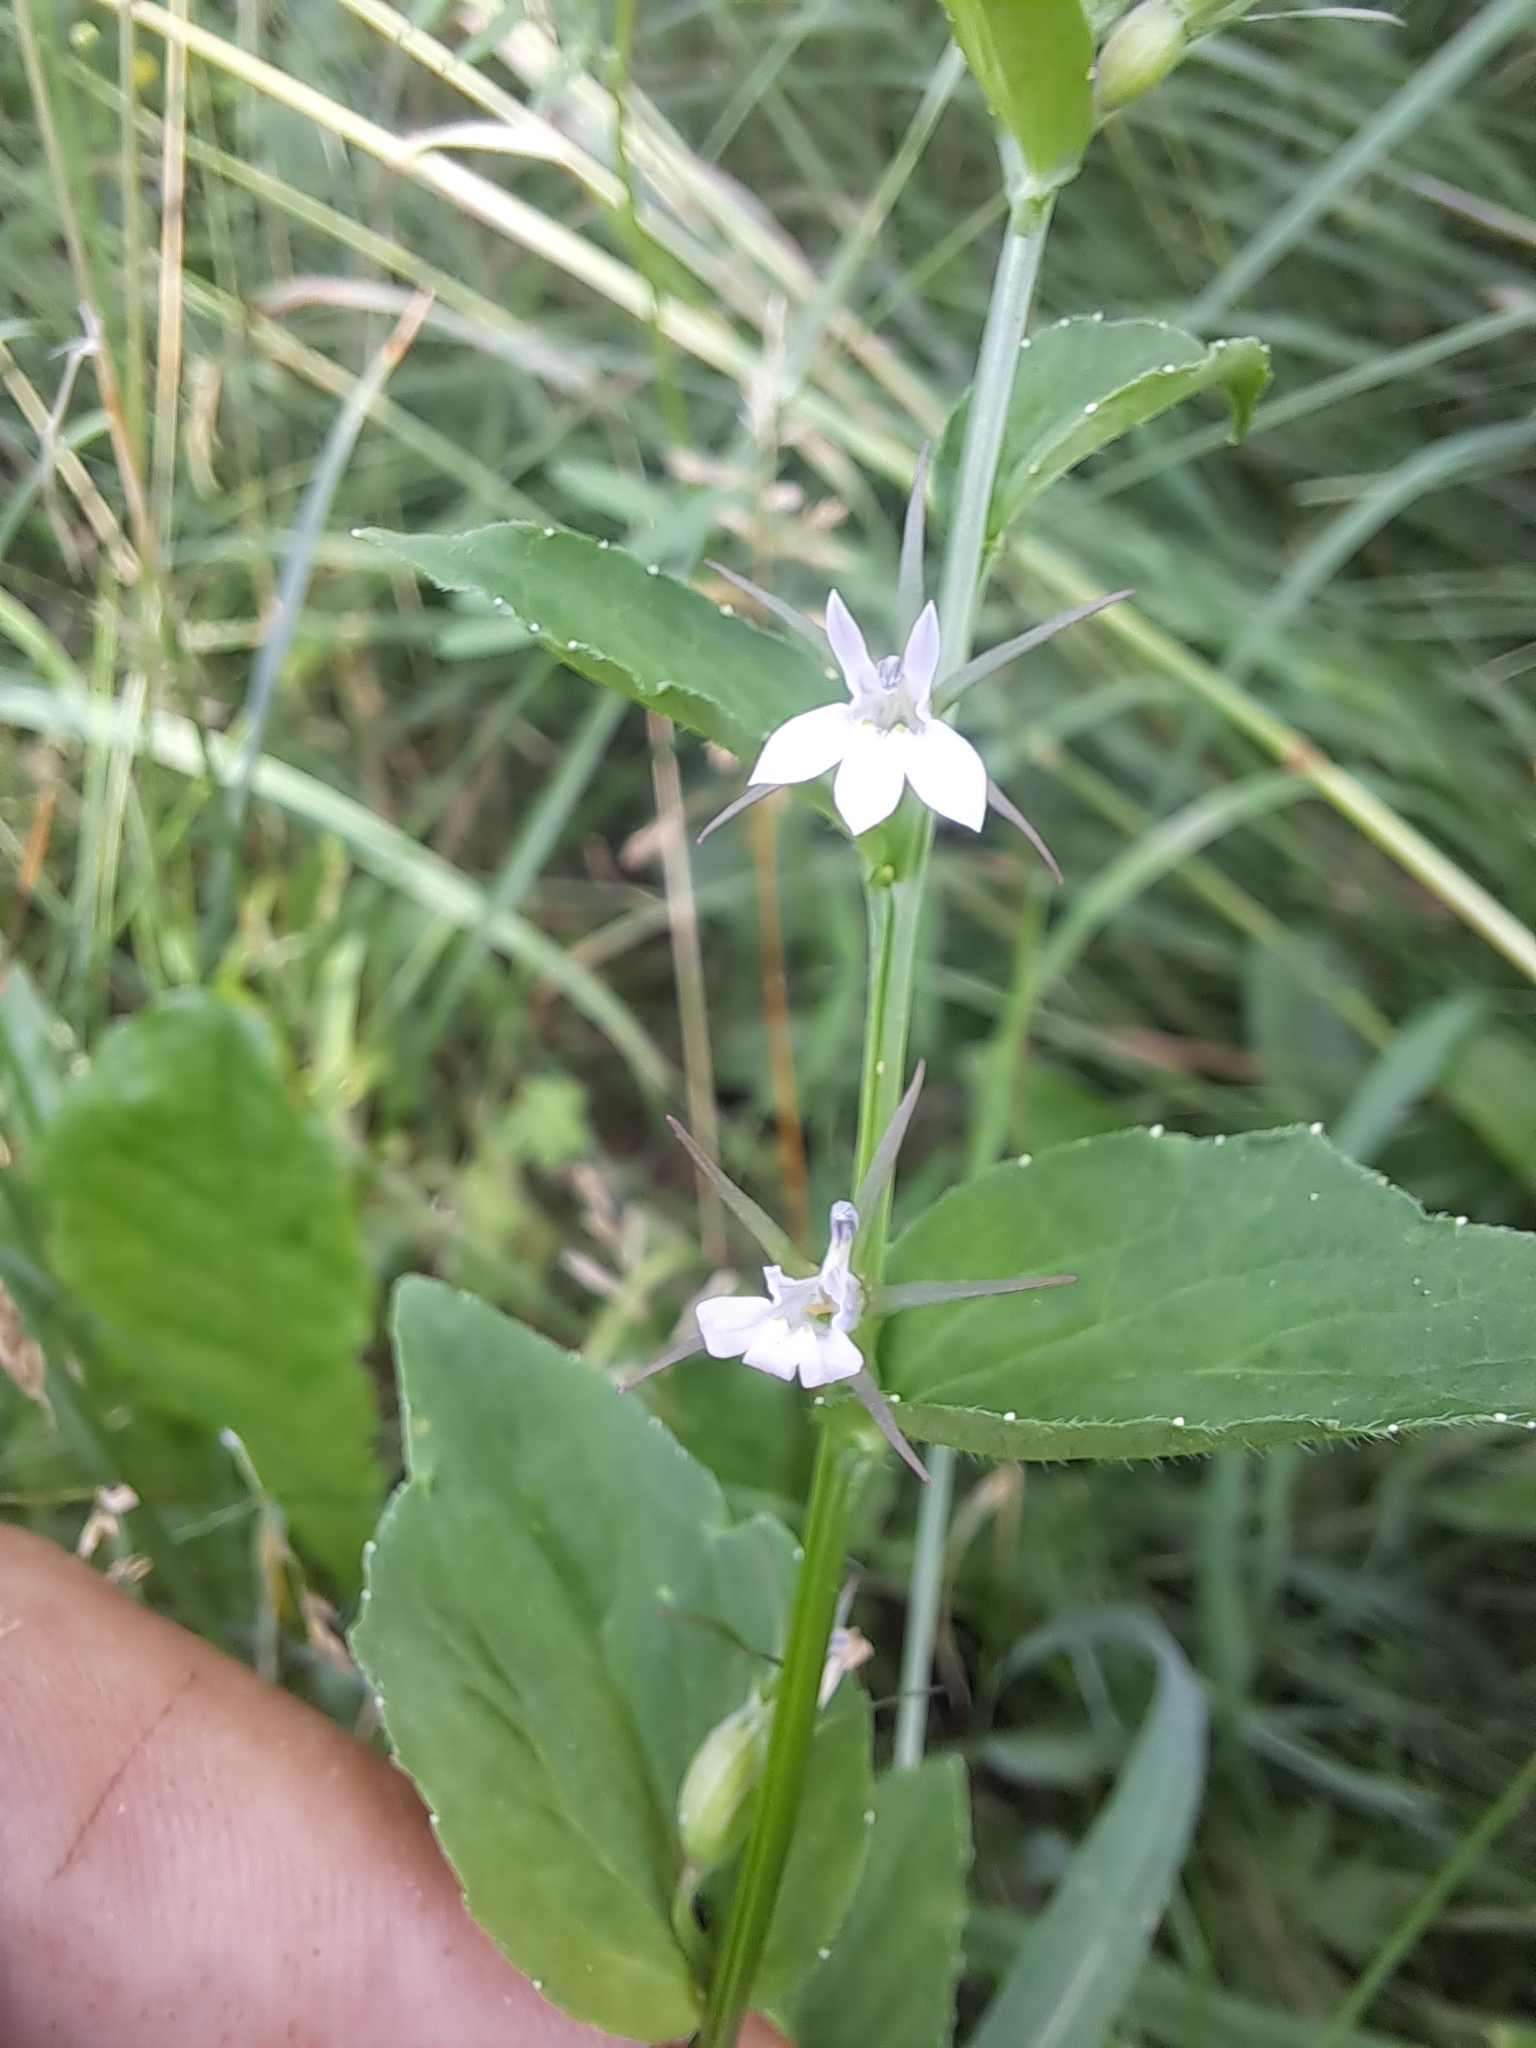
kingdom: Plantae
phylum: Tracheophyta
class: Magnoliopsida
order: Asterales
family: Campanulaceae
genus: Lobelia
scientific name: Lobelia inflata
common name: Indian tobacco
